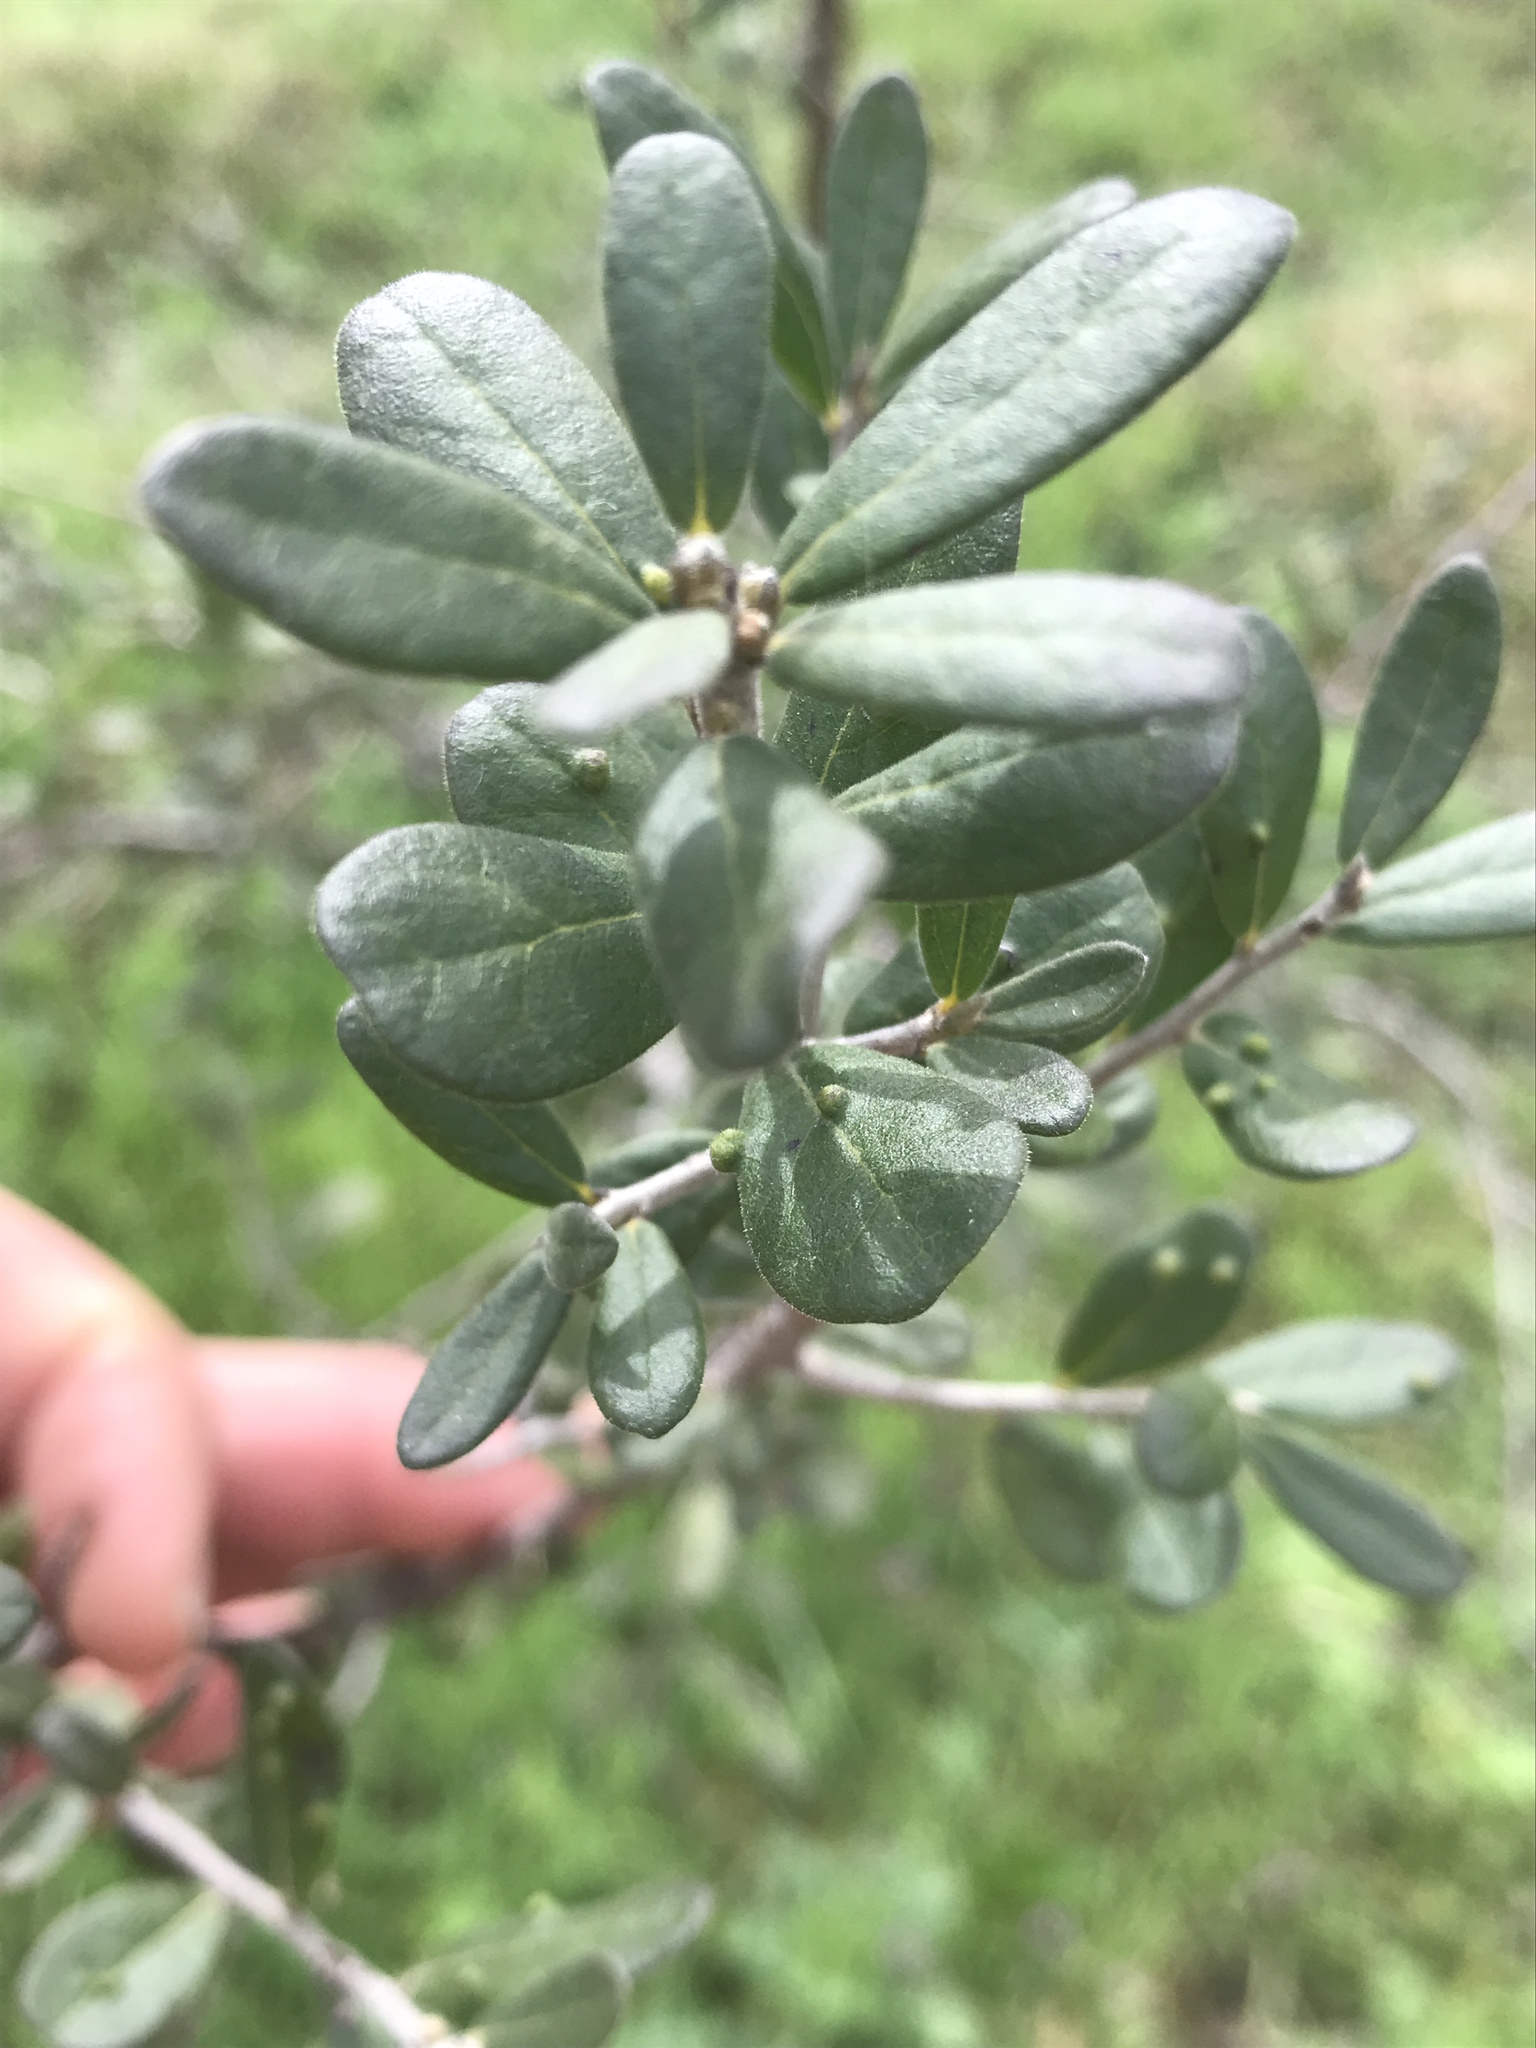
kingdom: Plantae
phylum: Tracheophyta
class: Magnoliopsida
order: Ericales
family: Ebenaceae
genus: Diospyros
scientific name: Diospyros texana
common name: Texas persimmon
